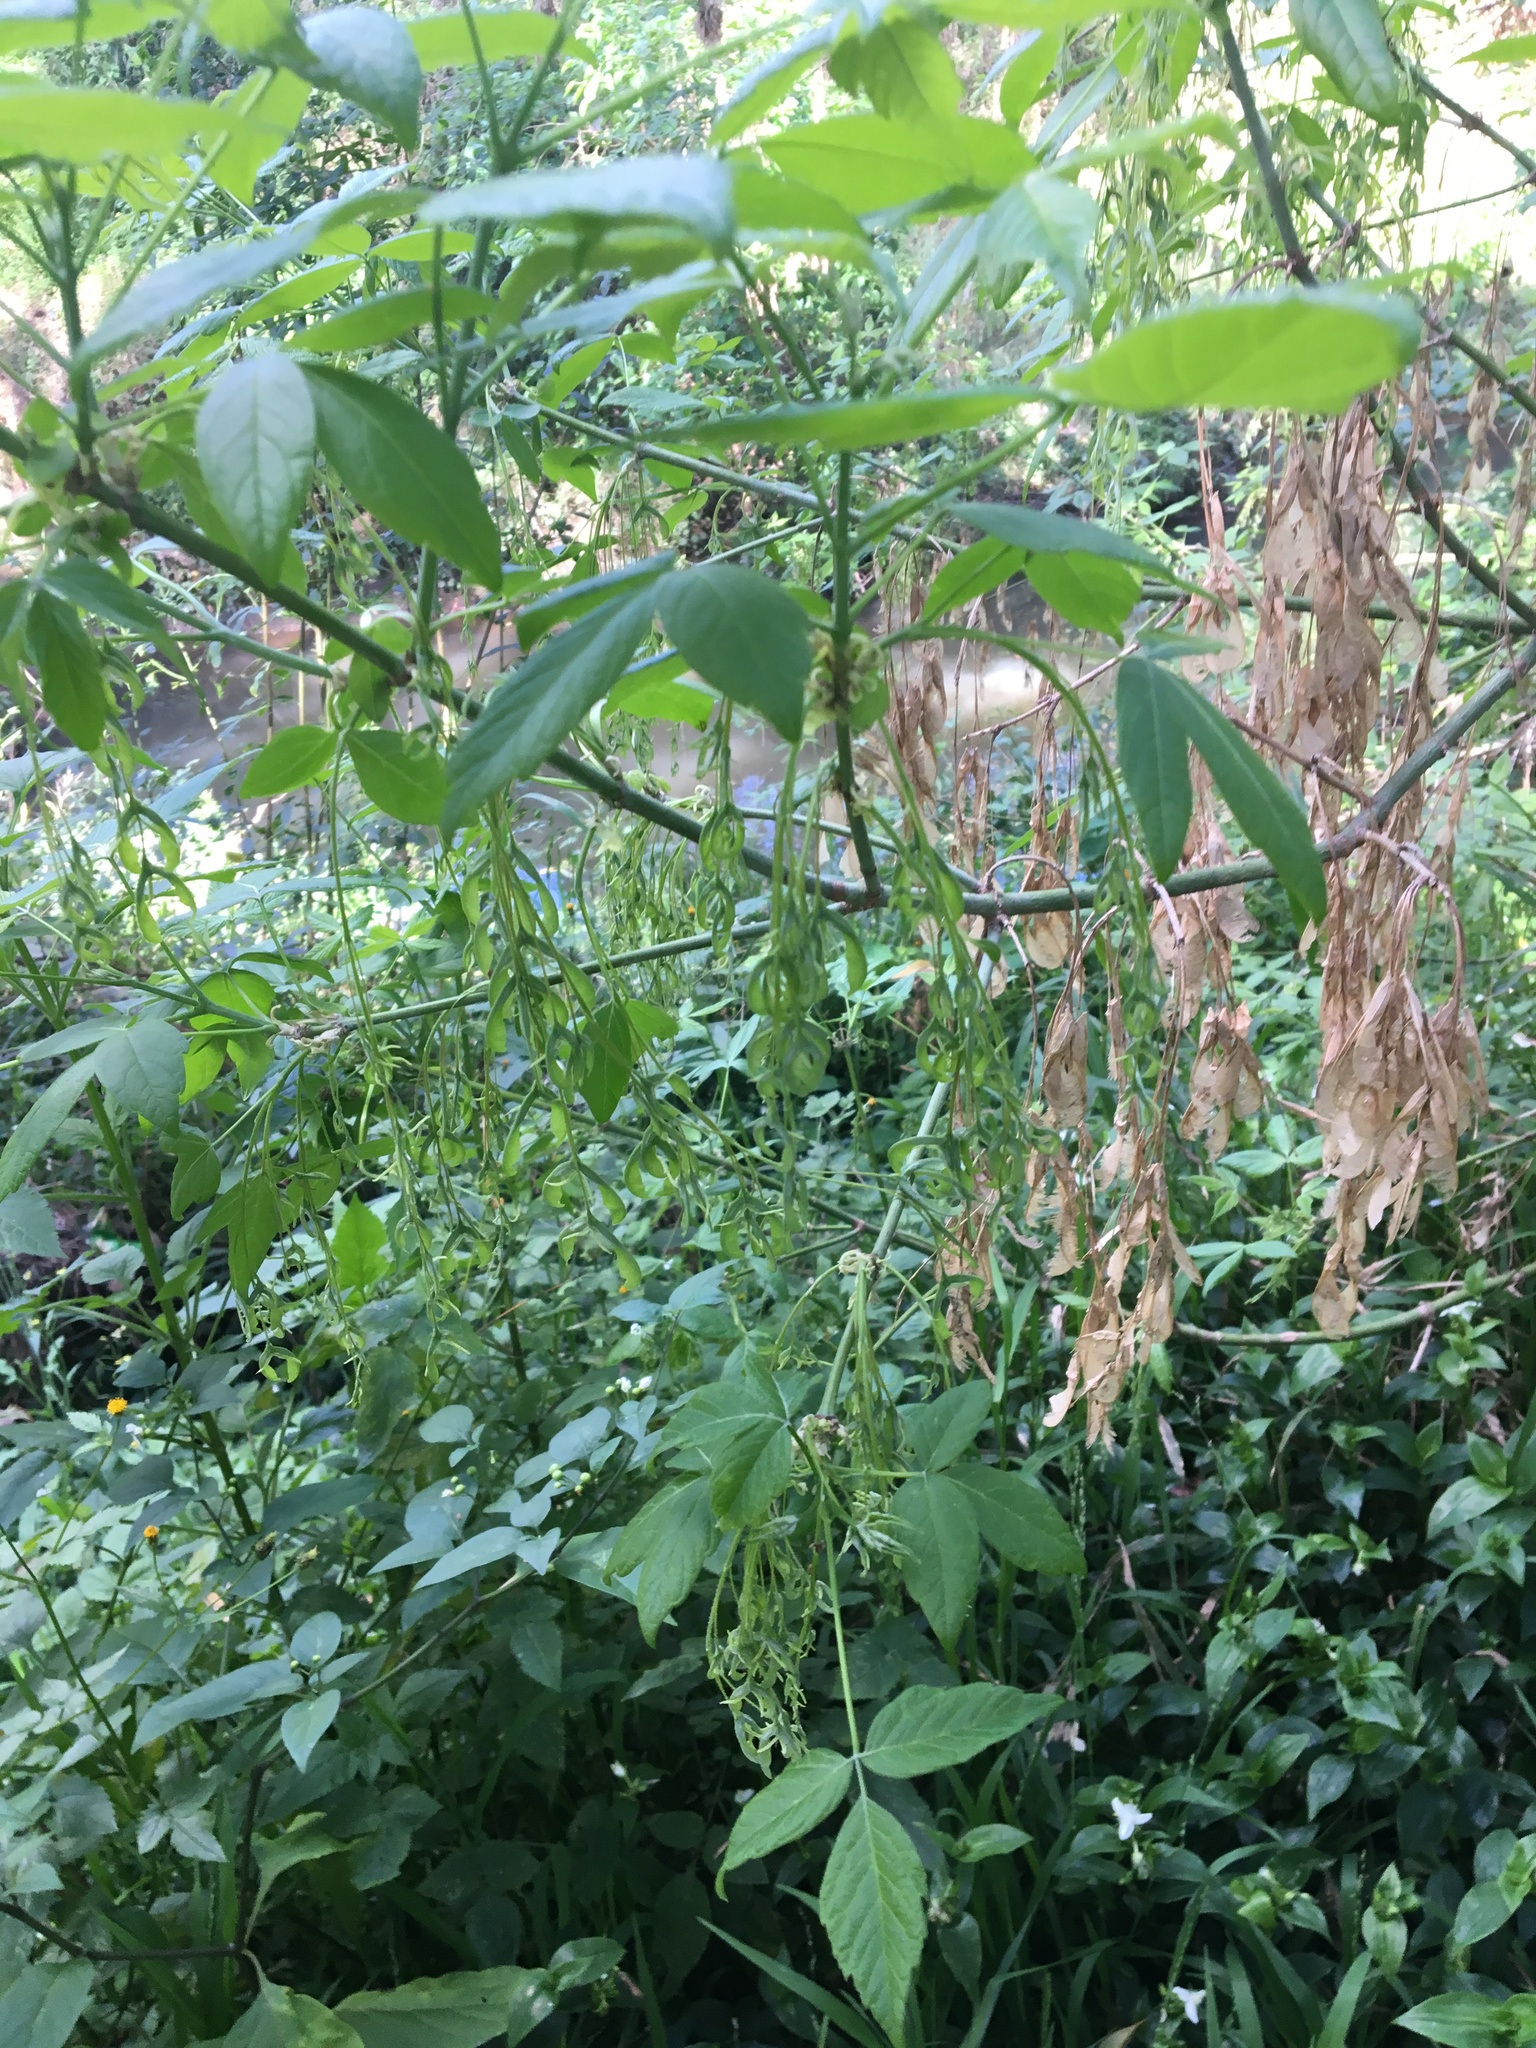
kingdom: Plantae
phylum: Tracheophyta
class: Magnoliopsida
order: Sapindales
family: Sapindaceae
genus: Acer
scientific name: Acer negundo
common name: Ashleaf maple
